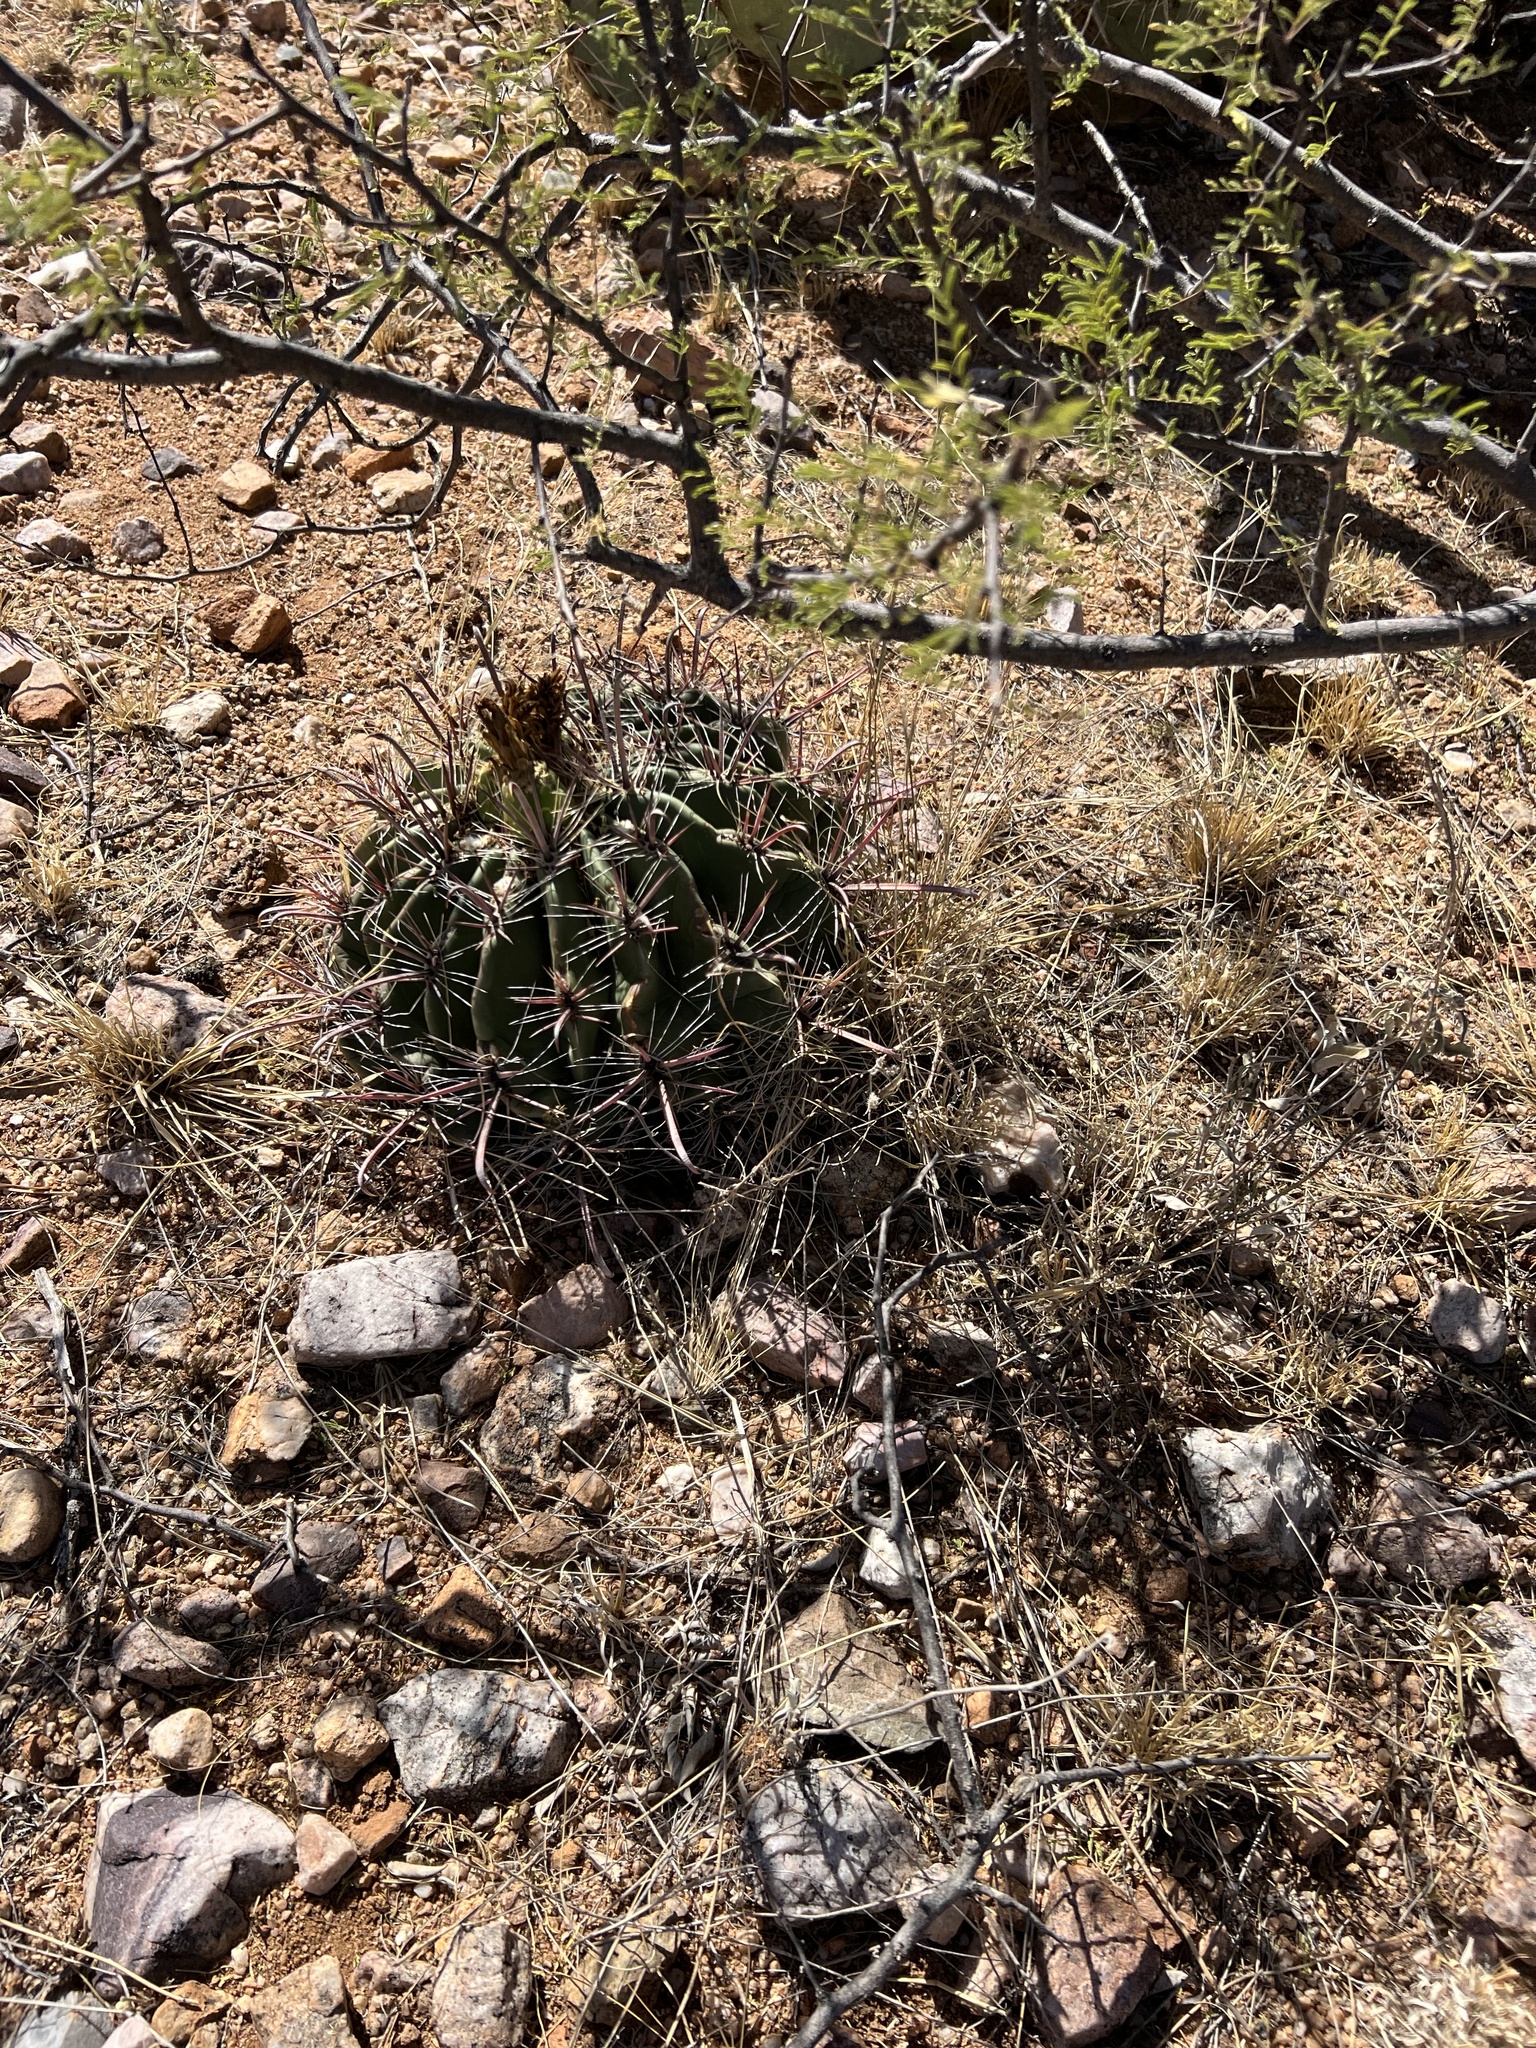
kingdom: Plantae
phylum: Tracheophyta
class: Magnoliopsida
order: Caryophyllales
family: Cactaceae
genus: Ferocactus
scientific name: Ferocactus wislizeni
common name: Candy barrel cactus
